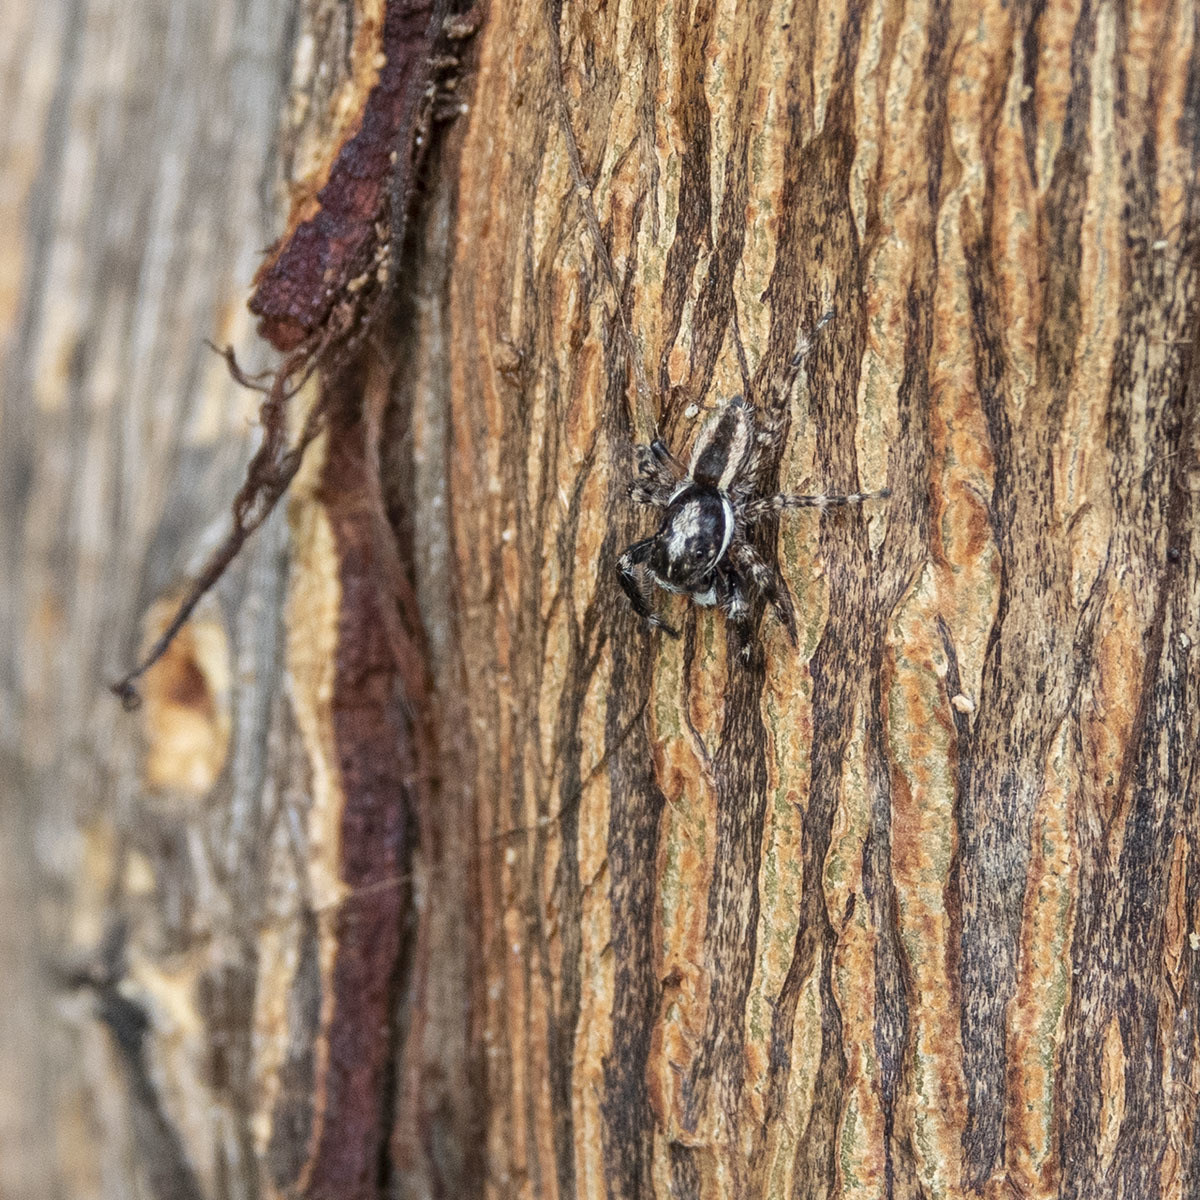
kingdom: Animalia
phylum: Arthropoda
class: Arachnida
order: Araneae
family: Salticidae
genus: Menemerus
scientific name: Menemerus bivittatus
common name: Gray wall jumper
